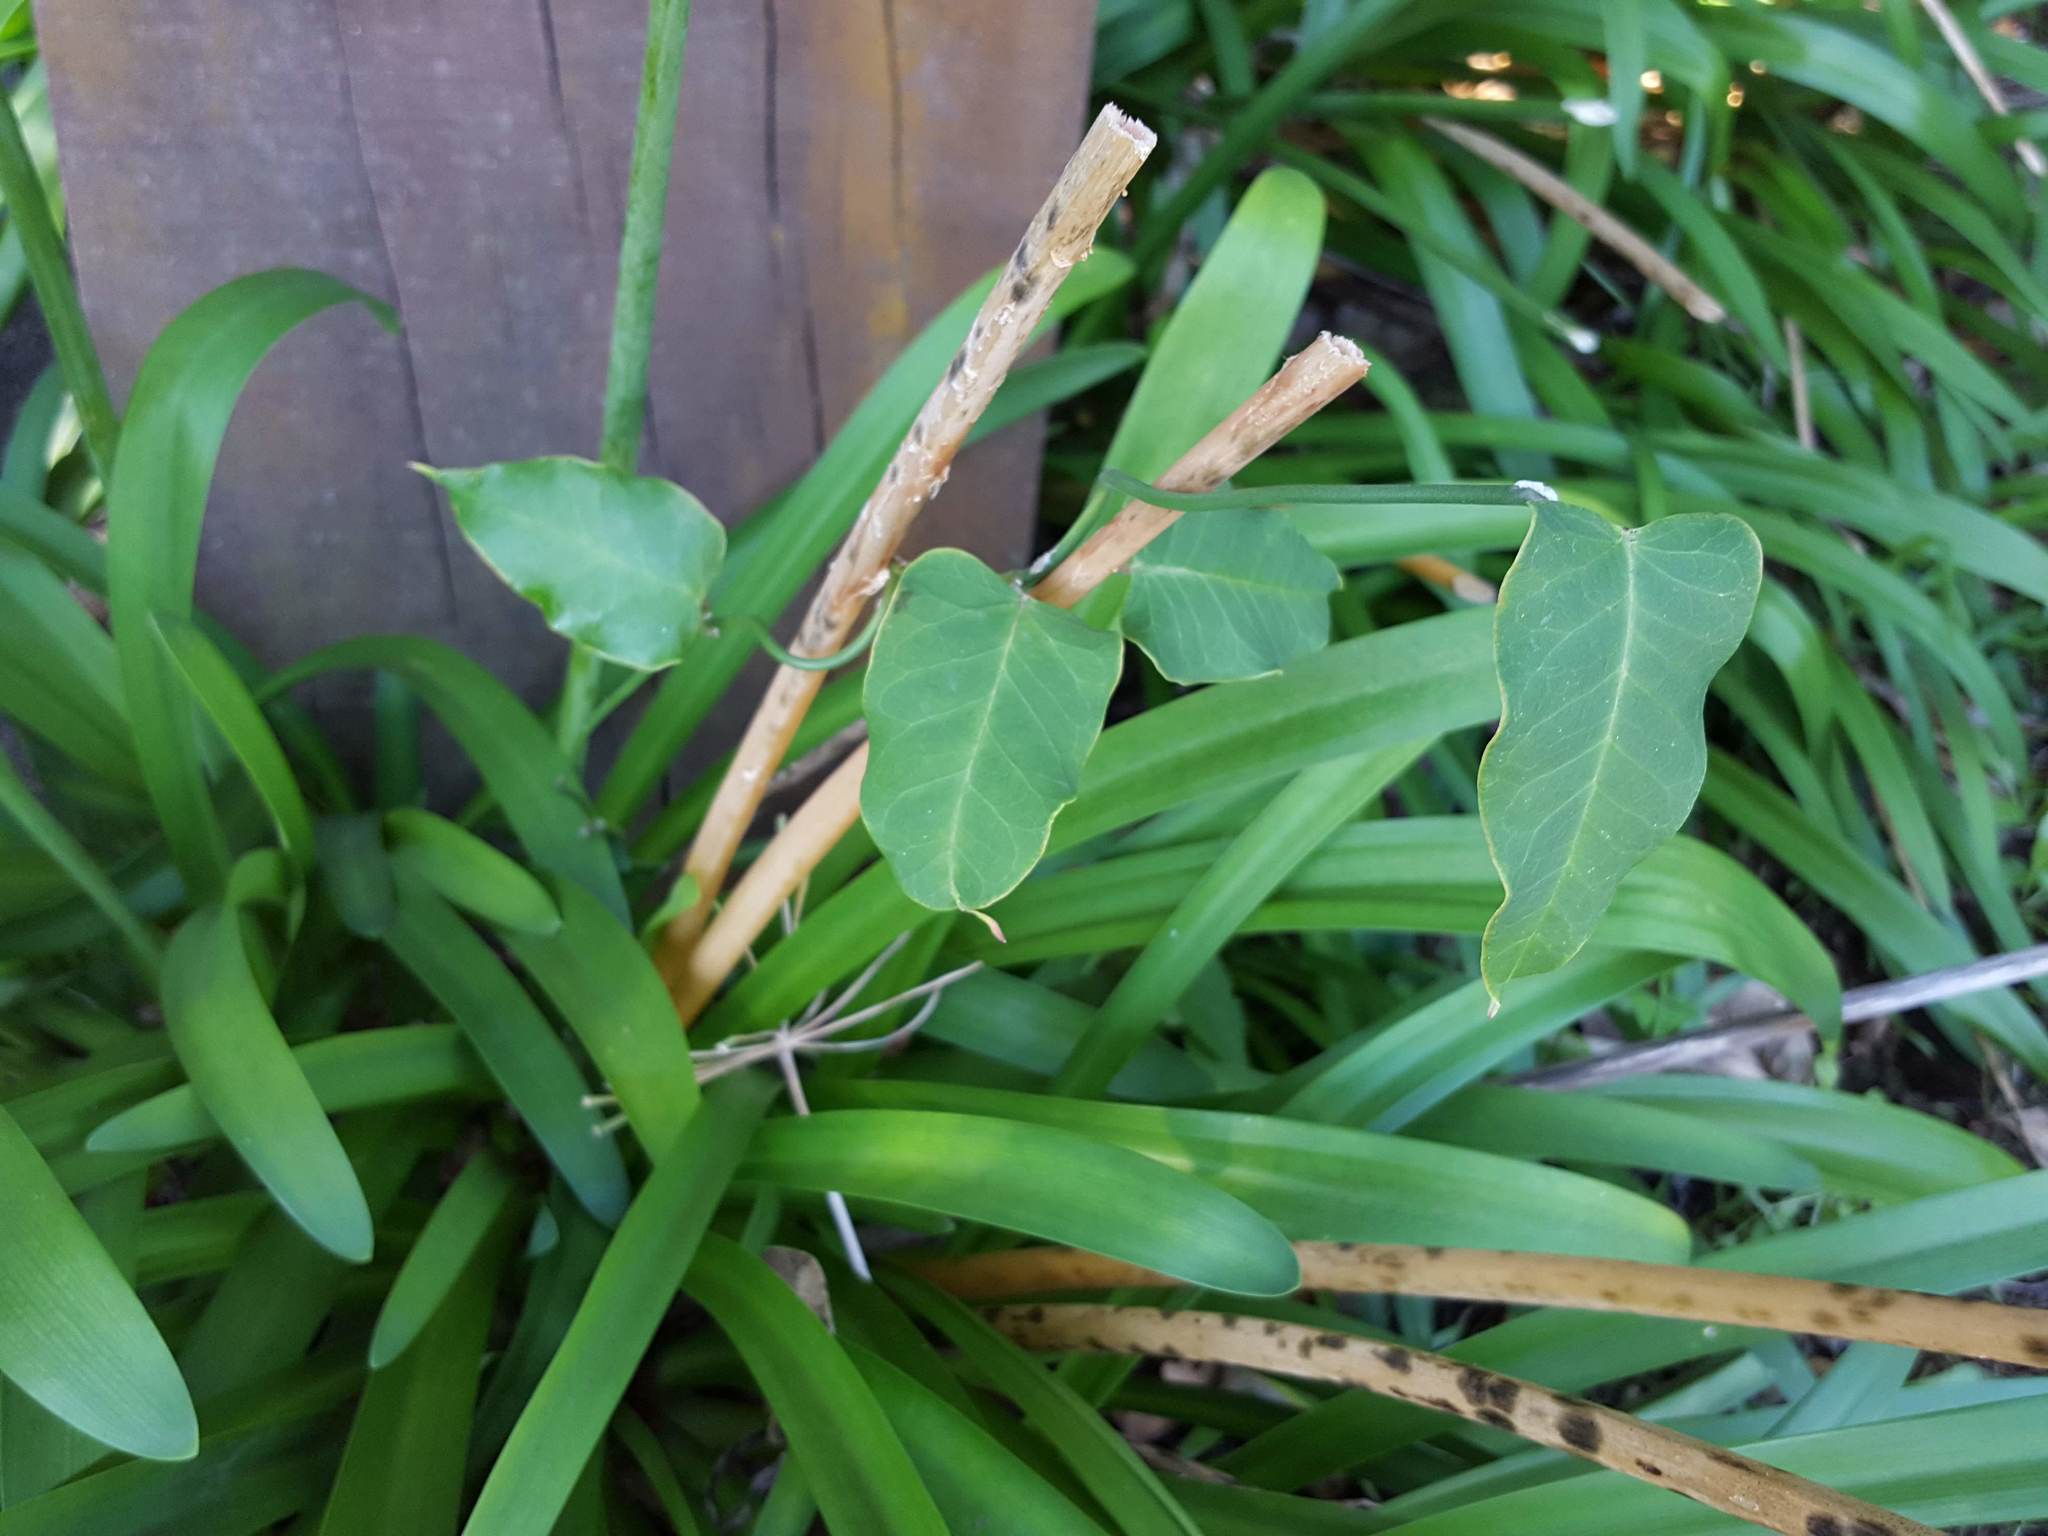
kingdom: Plantae
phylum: Tracheophyta
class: Magnoliopsida
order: Gentianales
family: Apocynaceae
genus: Araujia
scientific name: Araujia sericifera
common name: White bladderflower
